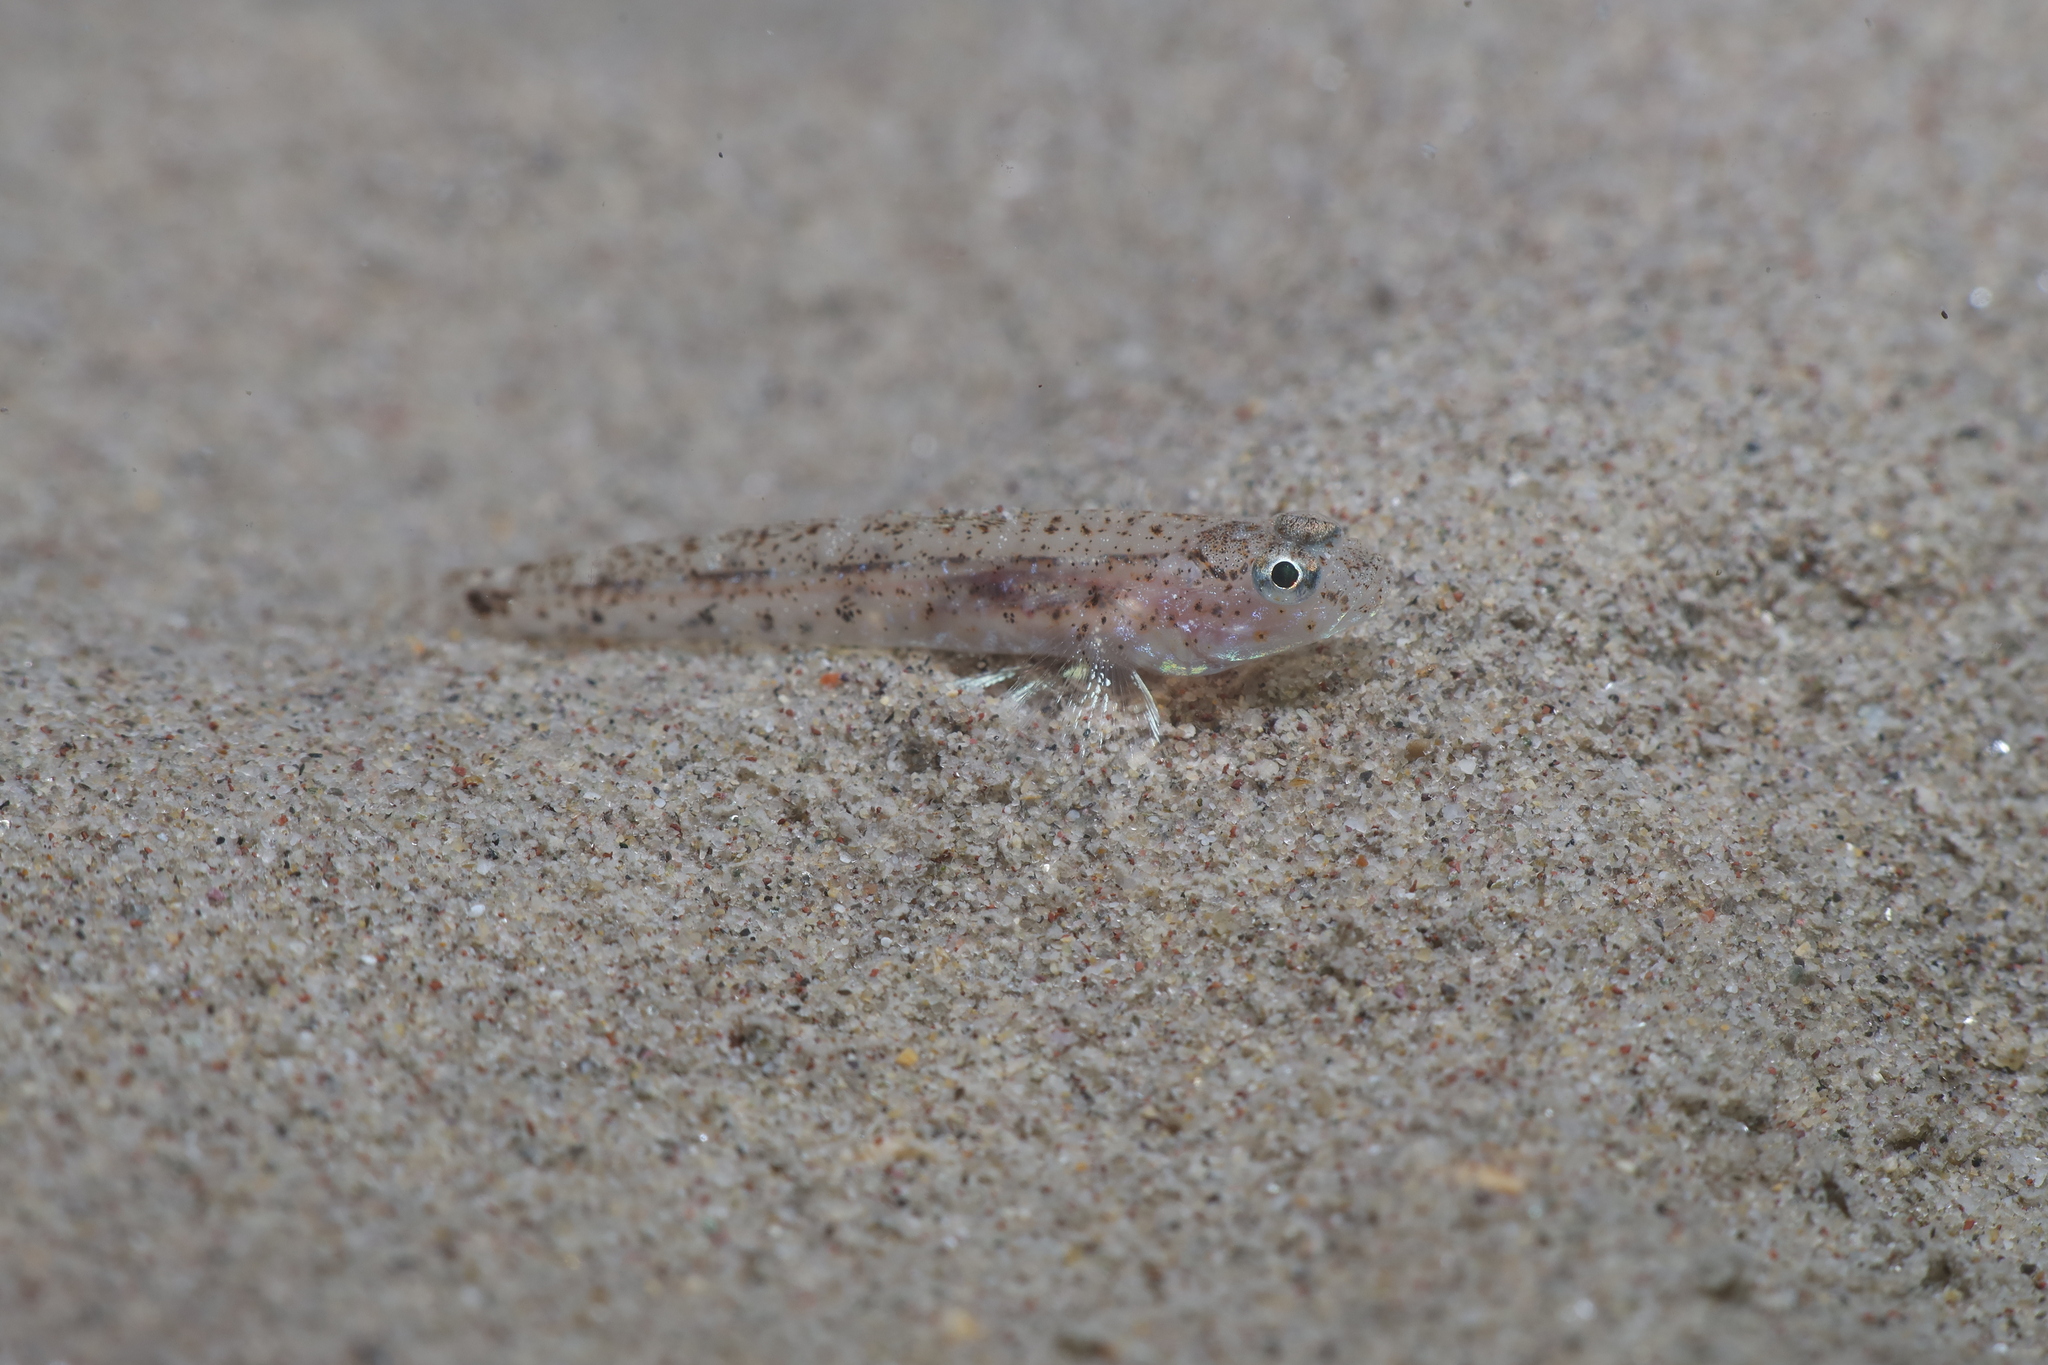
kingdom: Animalia
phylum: Chordata
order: Perciformes
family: Gobiidae
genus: Pomatoschistus
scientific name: Pomatoschistus marmoratus
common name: Marbled goby
